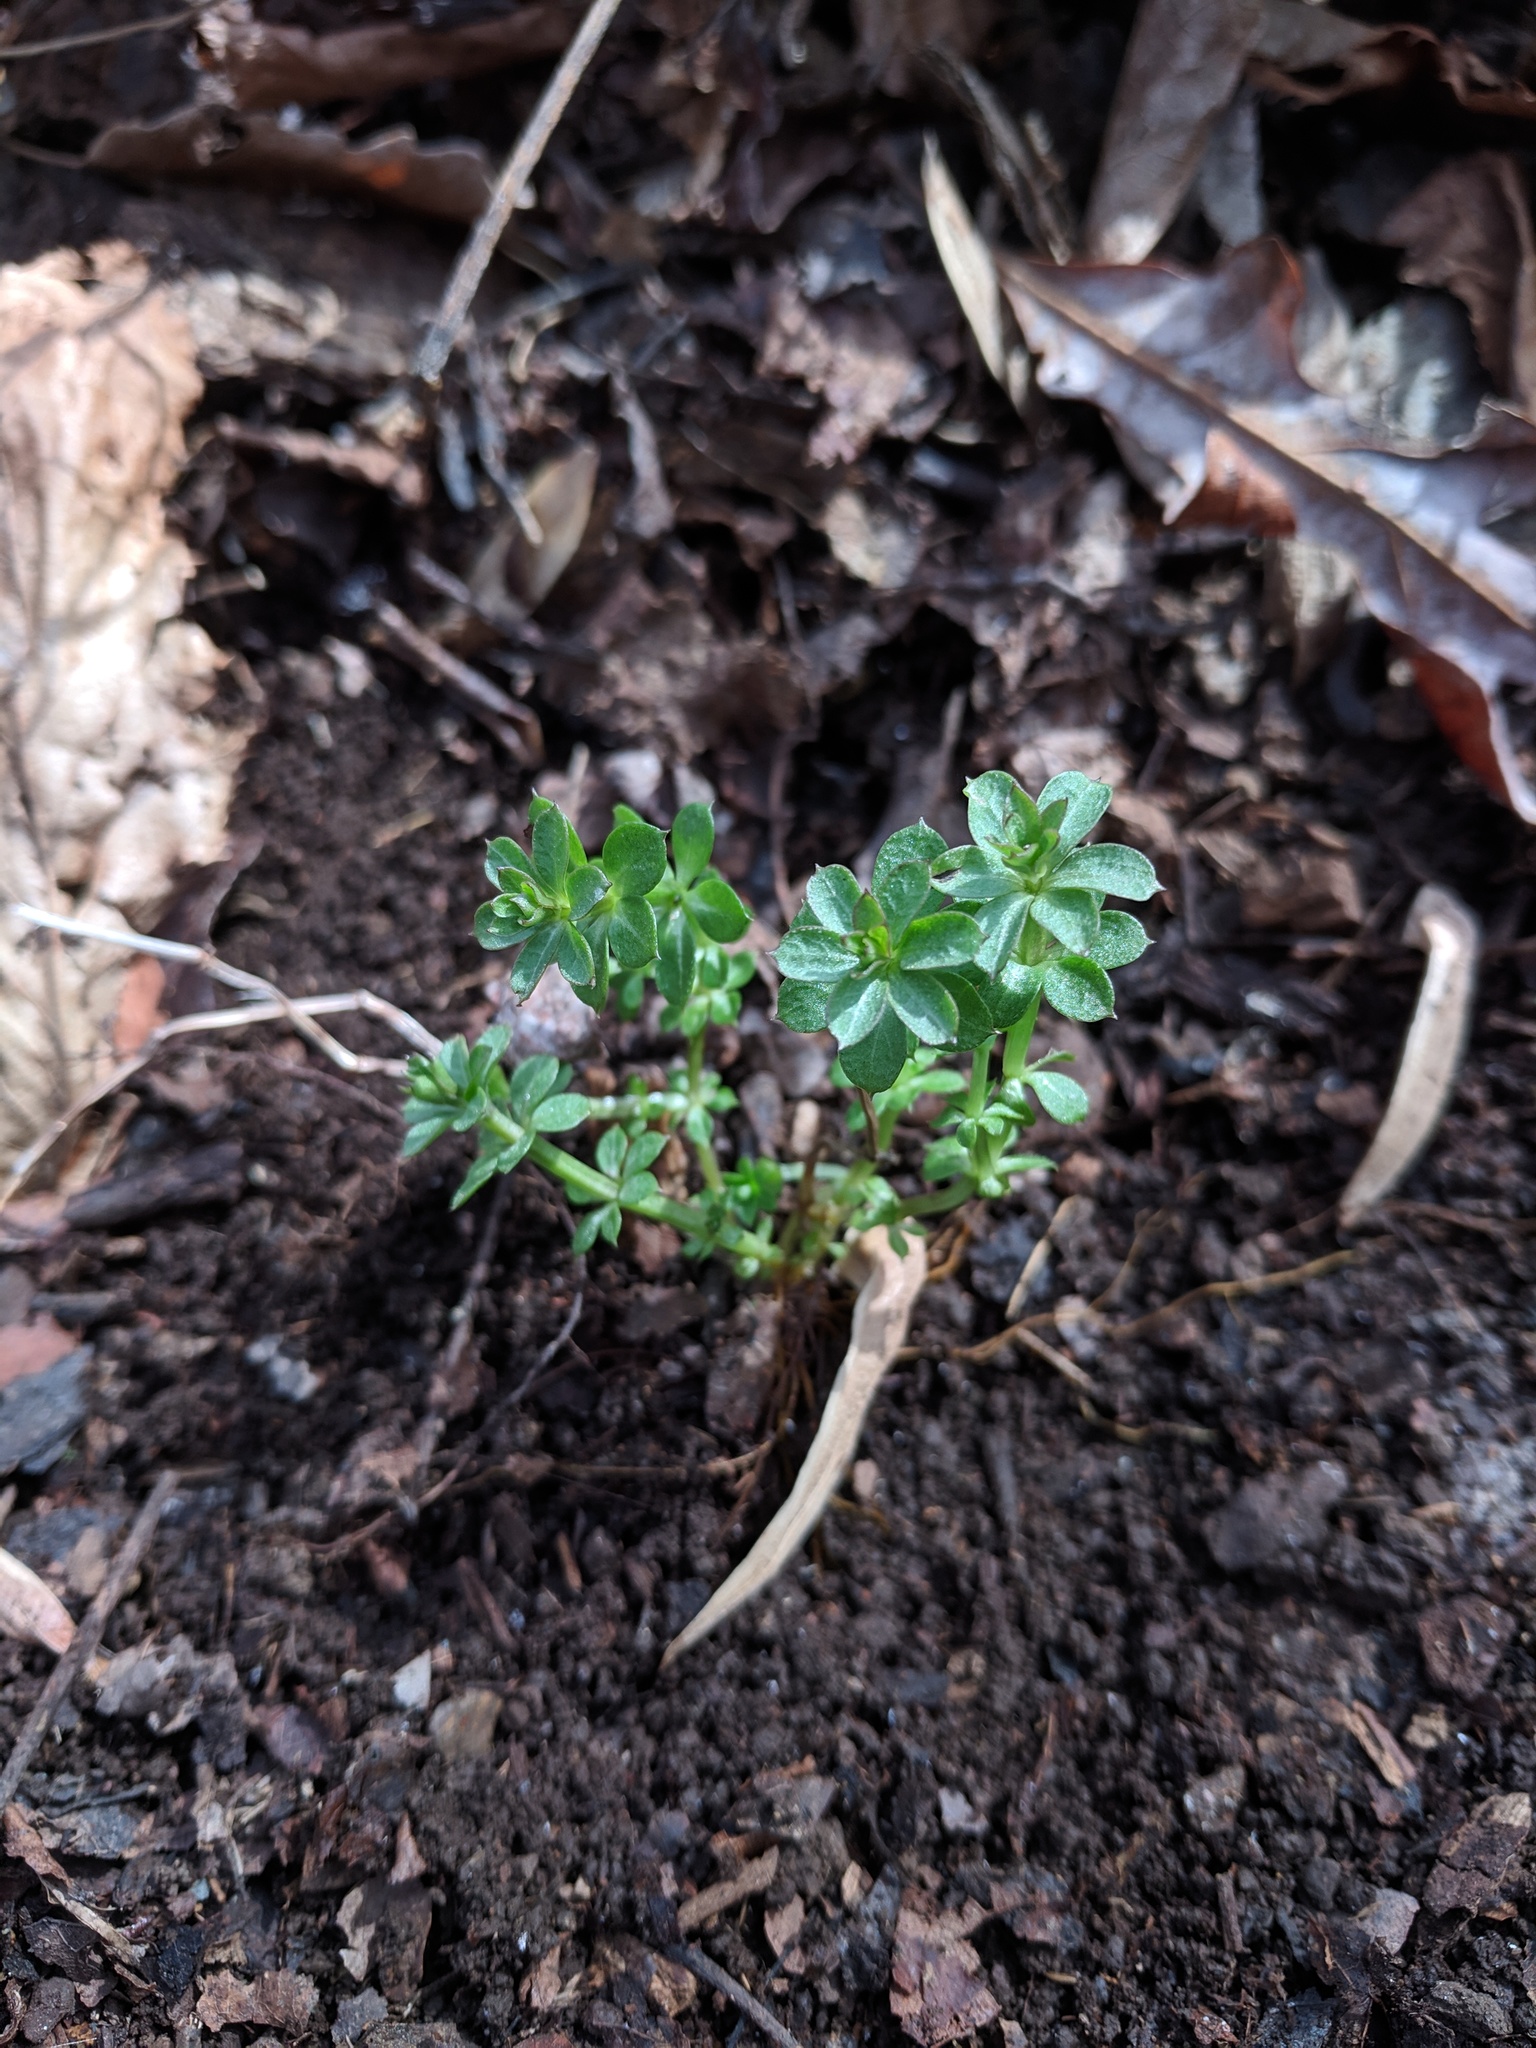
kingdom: Plantae
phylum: Tracheophyta
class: Magnoliopsida
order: Gentianales
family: Rubiaceae
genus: Galium
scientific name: Galium triflorum
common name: Fragrant bedstraw
